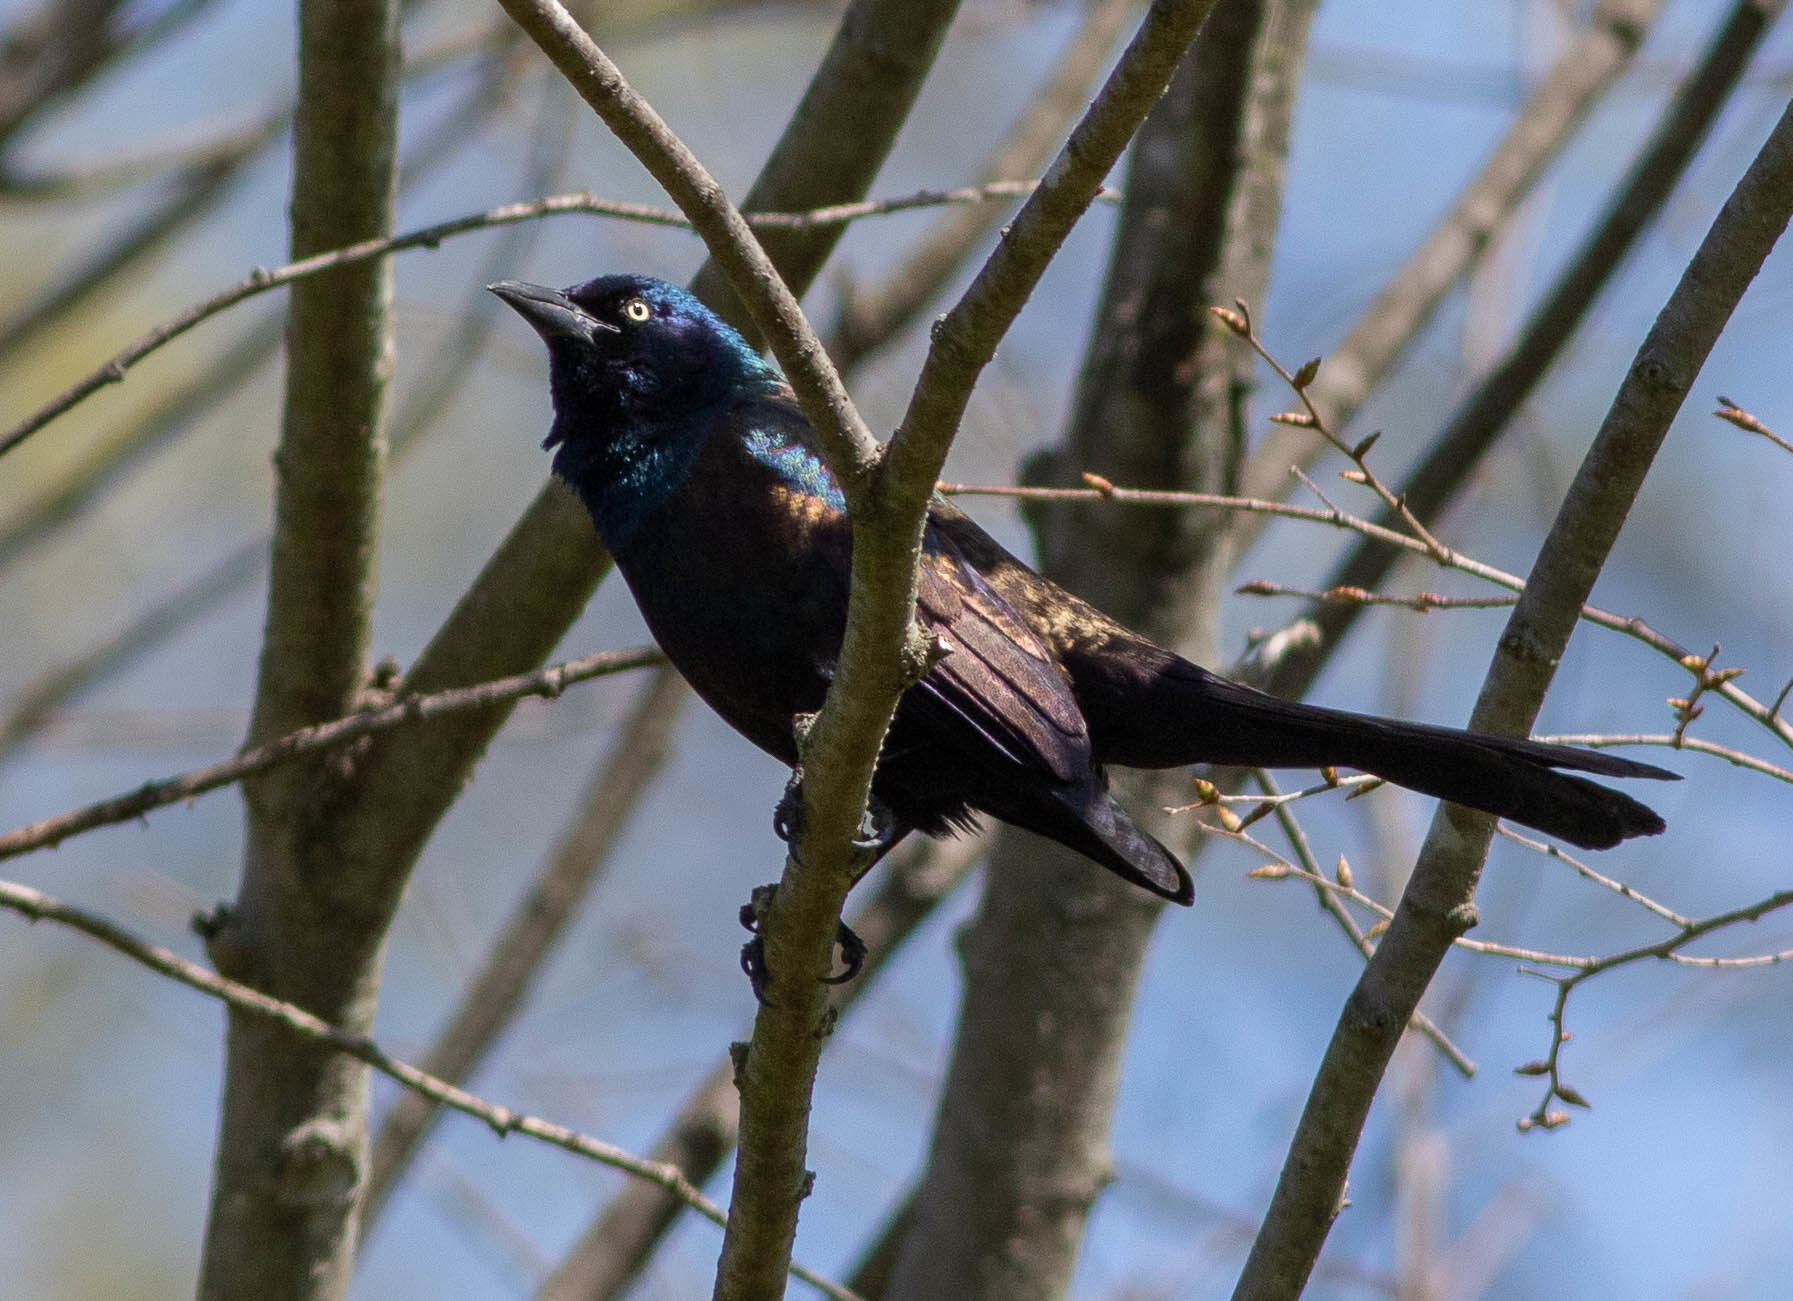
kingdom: Animalia
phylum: Chordata
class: Aves
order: Passeriformes
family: Icteridae
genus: Quiscalus
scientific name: Quiscalus quiscula
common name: Common grackle
